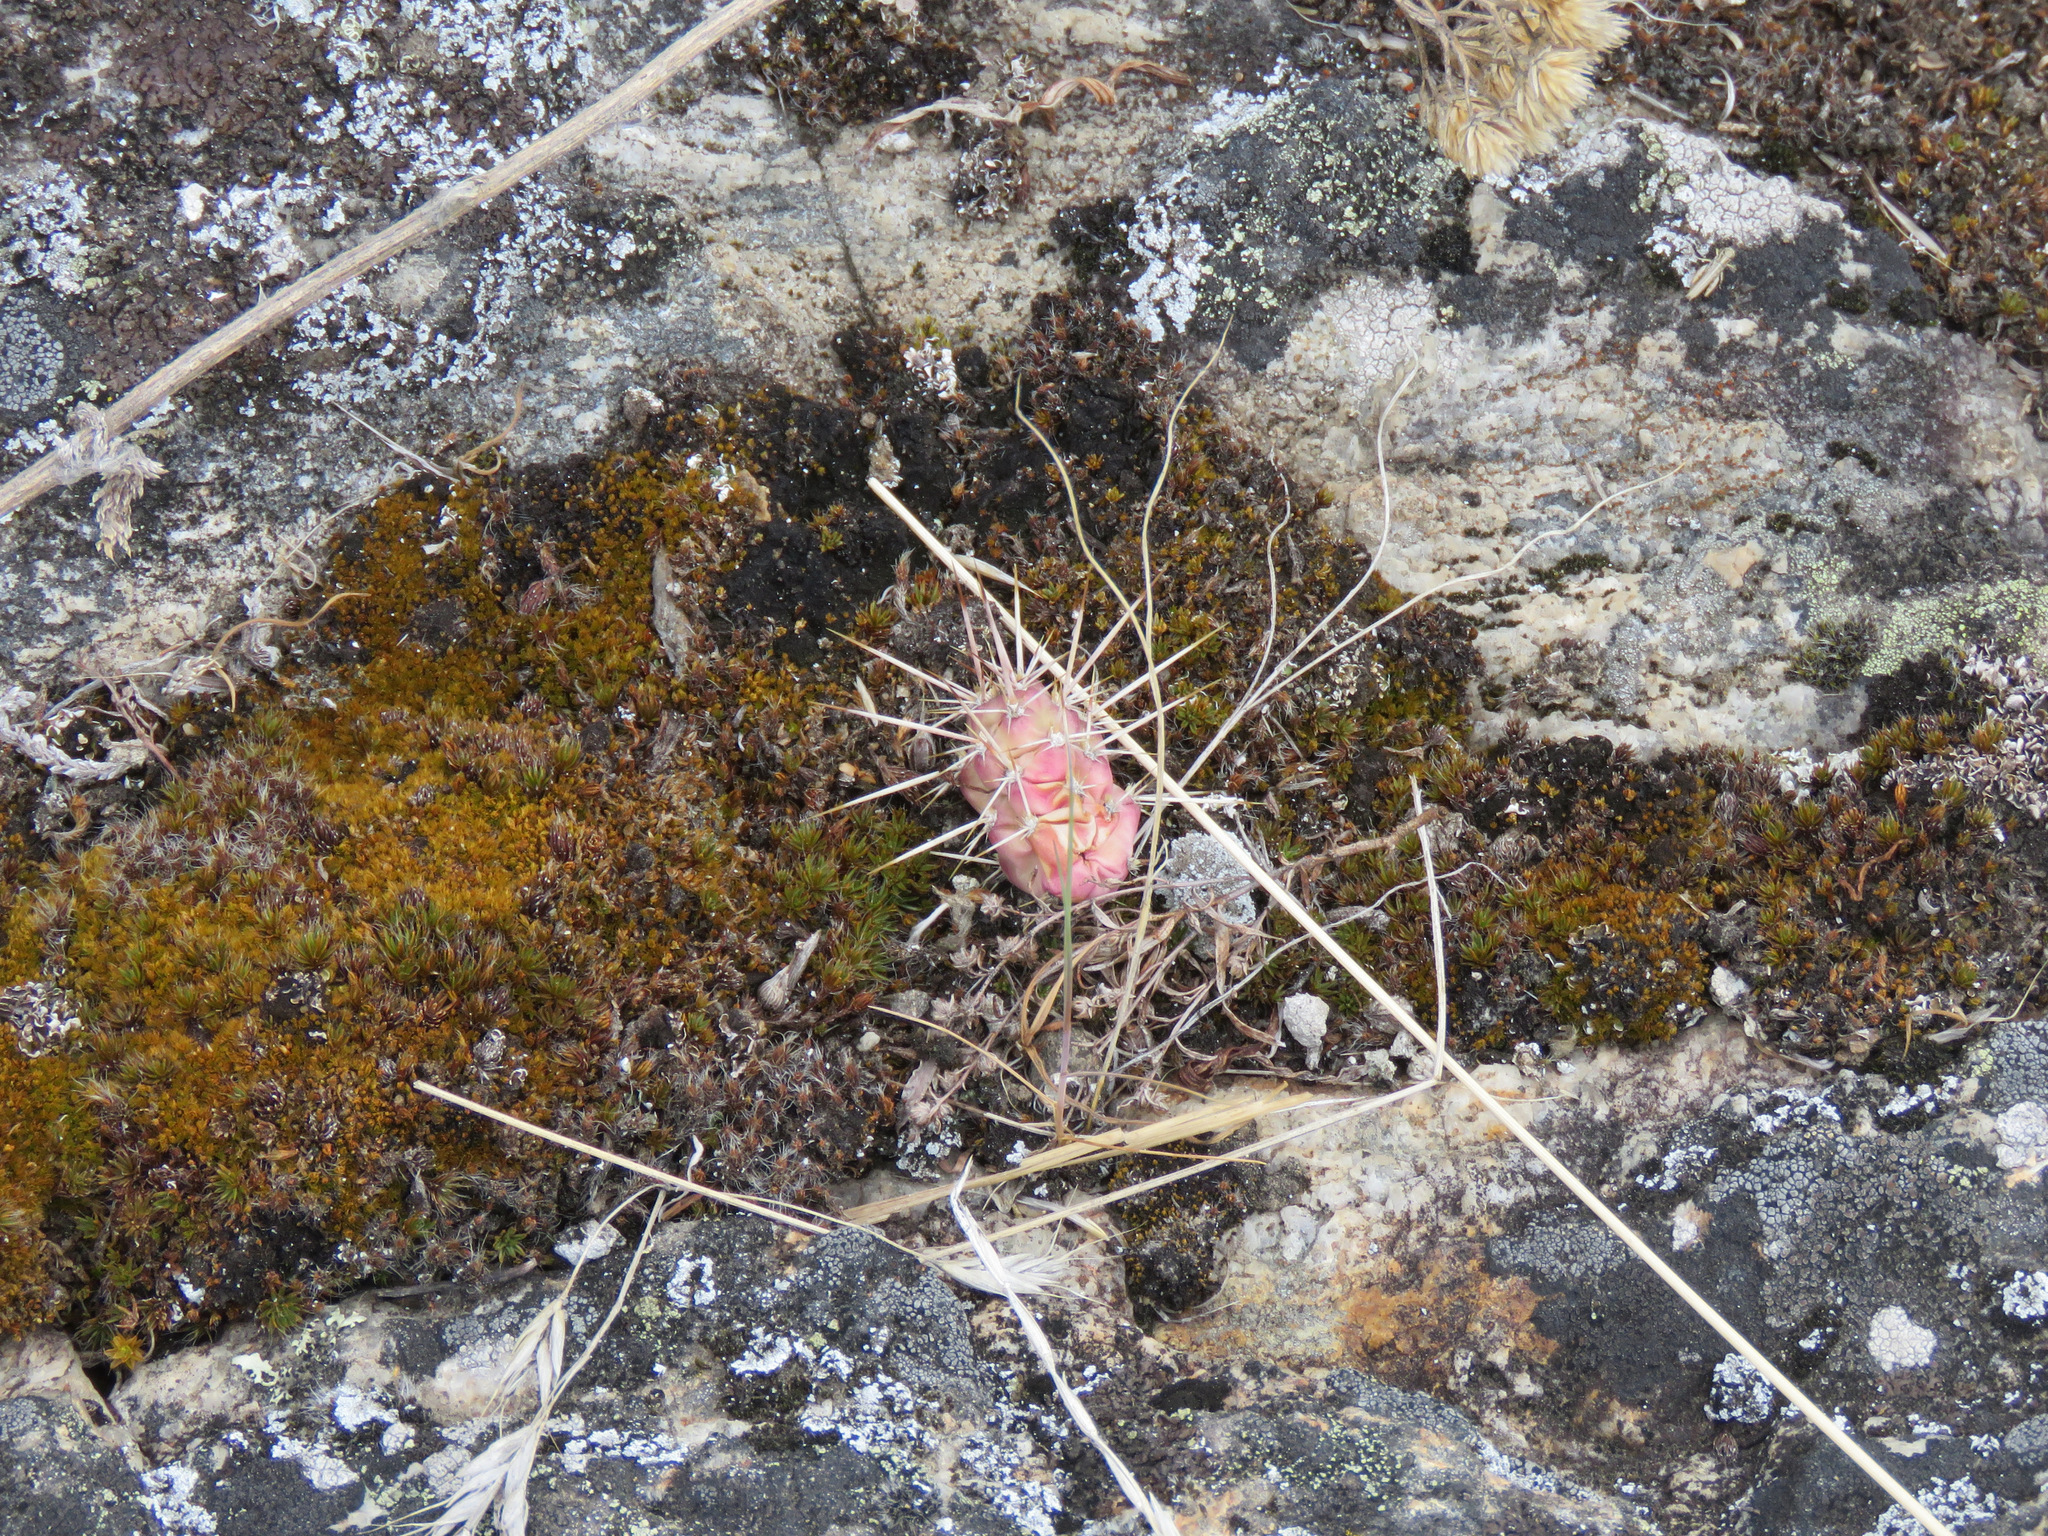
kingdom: Plantae
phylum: Tracheophyta
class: Magnoliopsida
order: Caryophyllales
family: Cactaceae
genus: Opuntia
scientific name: Opuntia fragilis
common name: Brittle cactus
